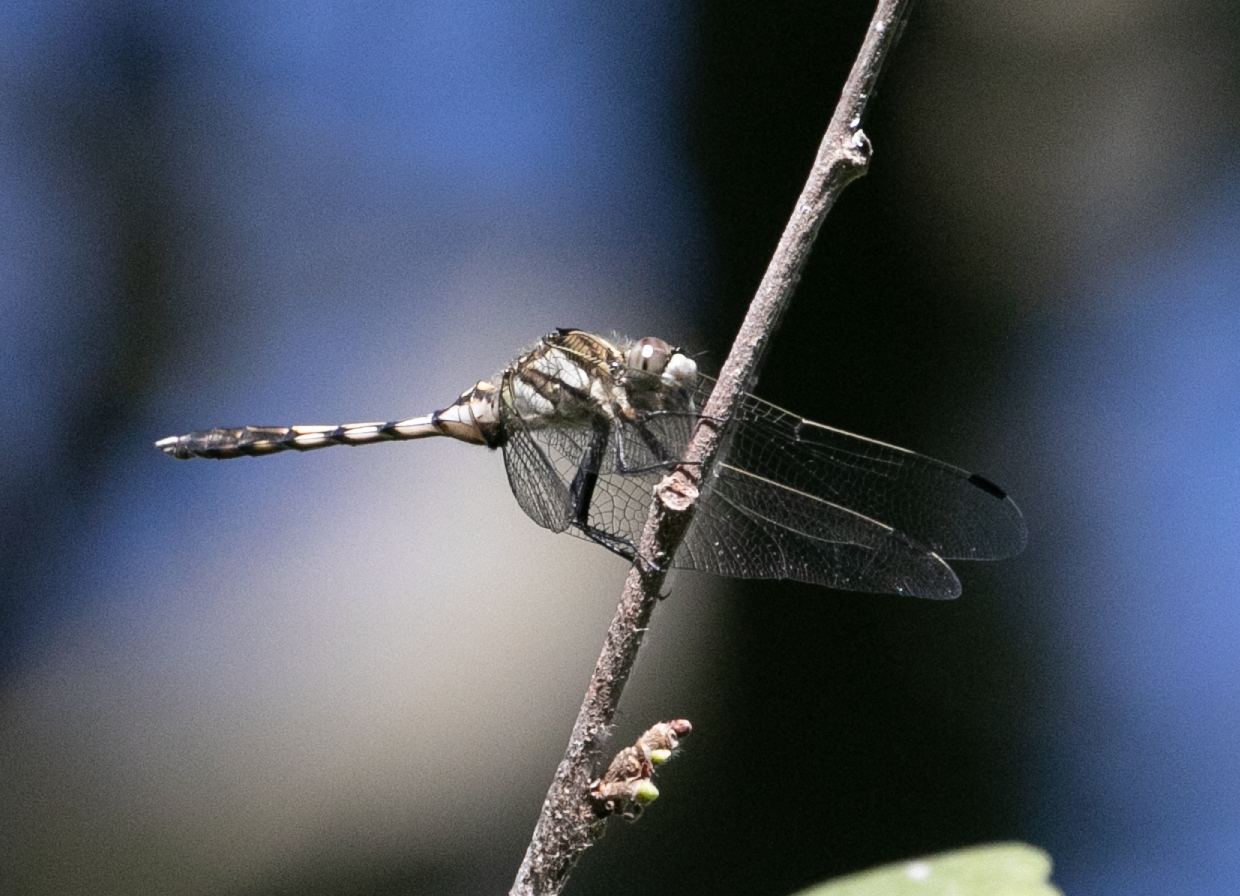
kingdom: Animalia
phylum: Arthropoda
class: Insecta
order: Odonata
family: Libellulidae
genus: Orthetrum
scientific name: Orthetrum albistylum
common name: White-tailed skimmer
